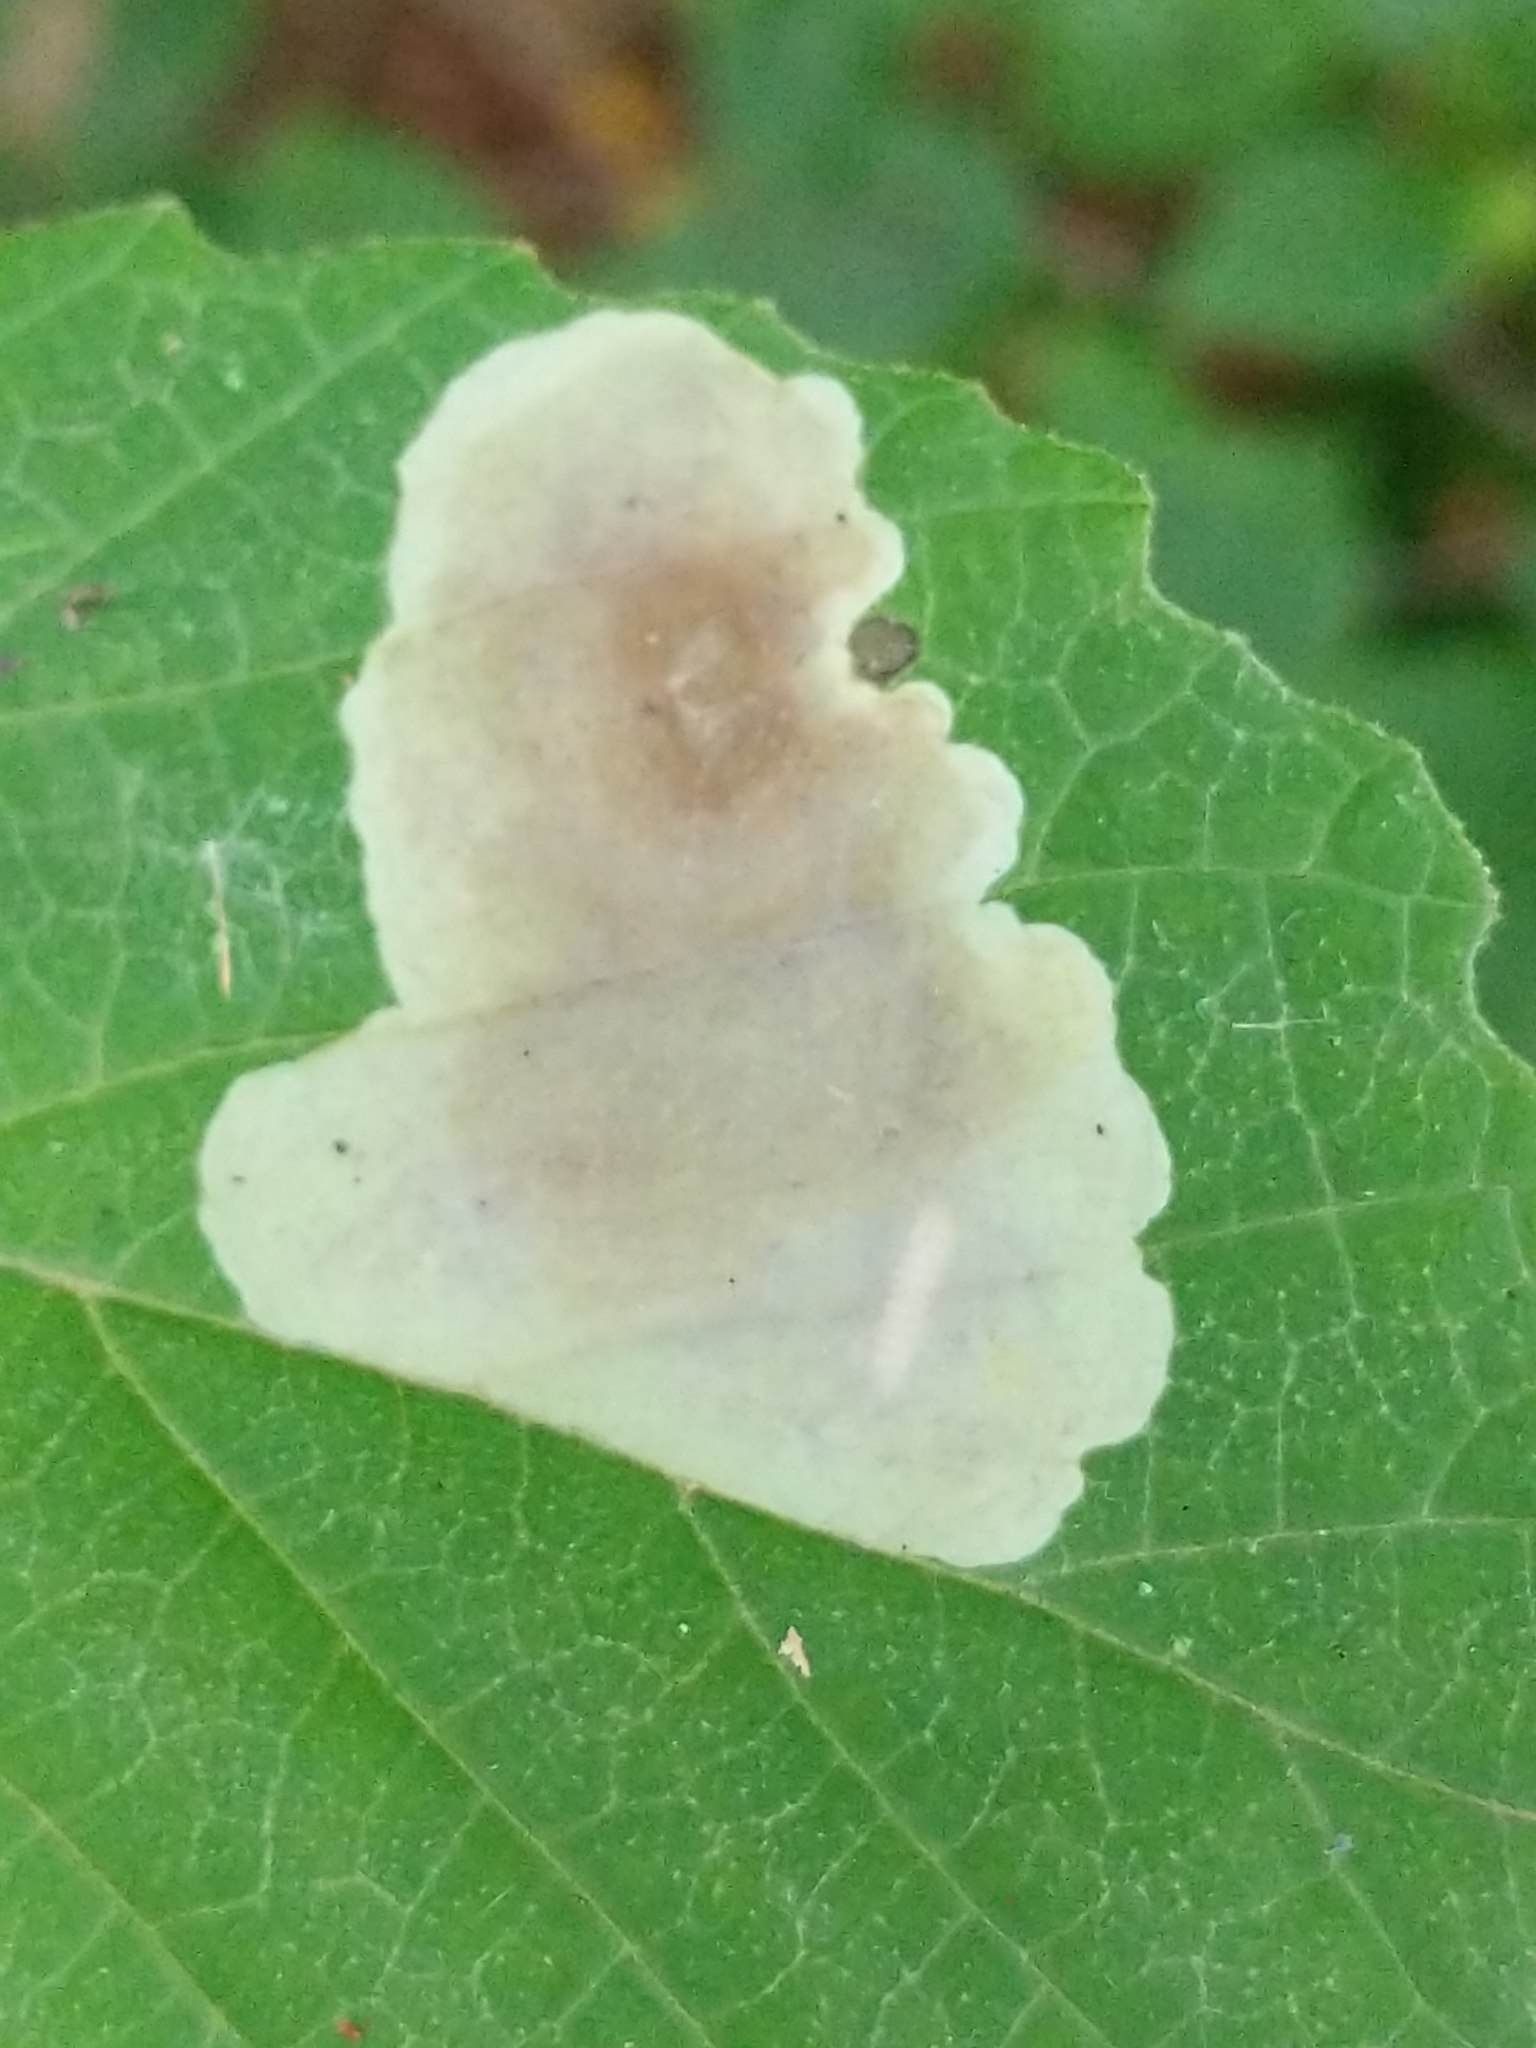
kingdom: Animalia
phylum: Arthropoda
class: Insecta
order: Lepidoptera
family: Gracillariidae
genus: Cameraria
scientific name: Cameraria hamameliella
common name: Witchhazel leafminer
